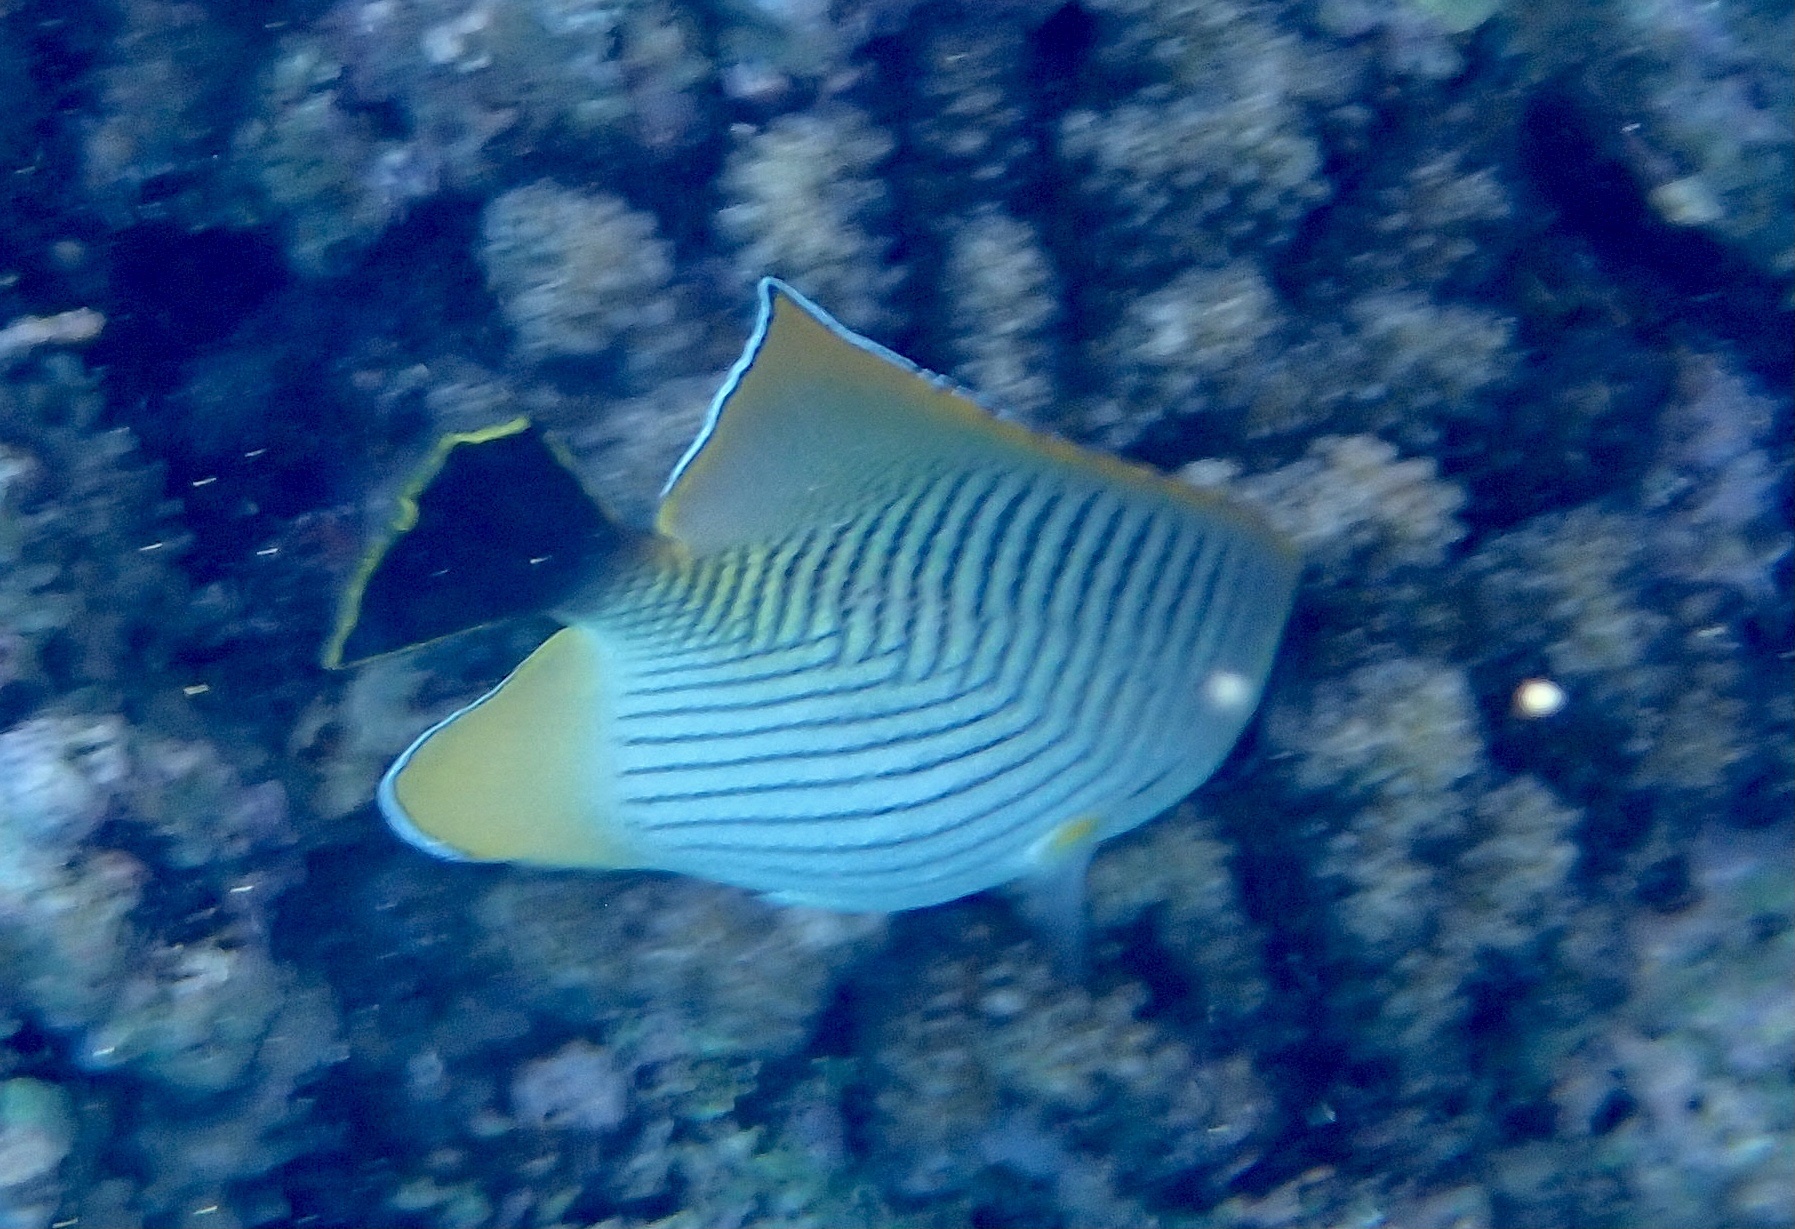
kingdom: Animalia
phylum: Chordata
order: Perciformes
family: Chaetodontidae
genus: Chaetodon
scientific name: Chaetodon trifascialis
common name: Chevroned butterflyfish
